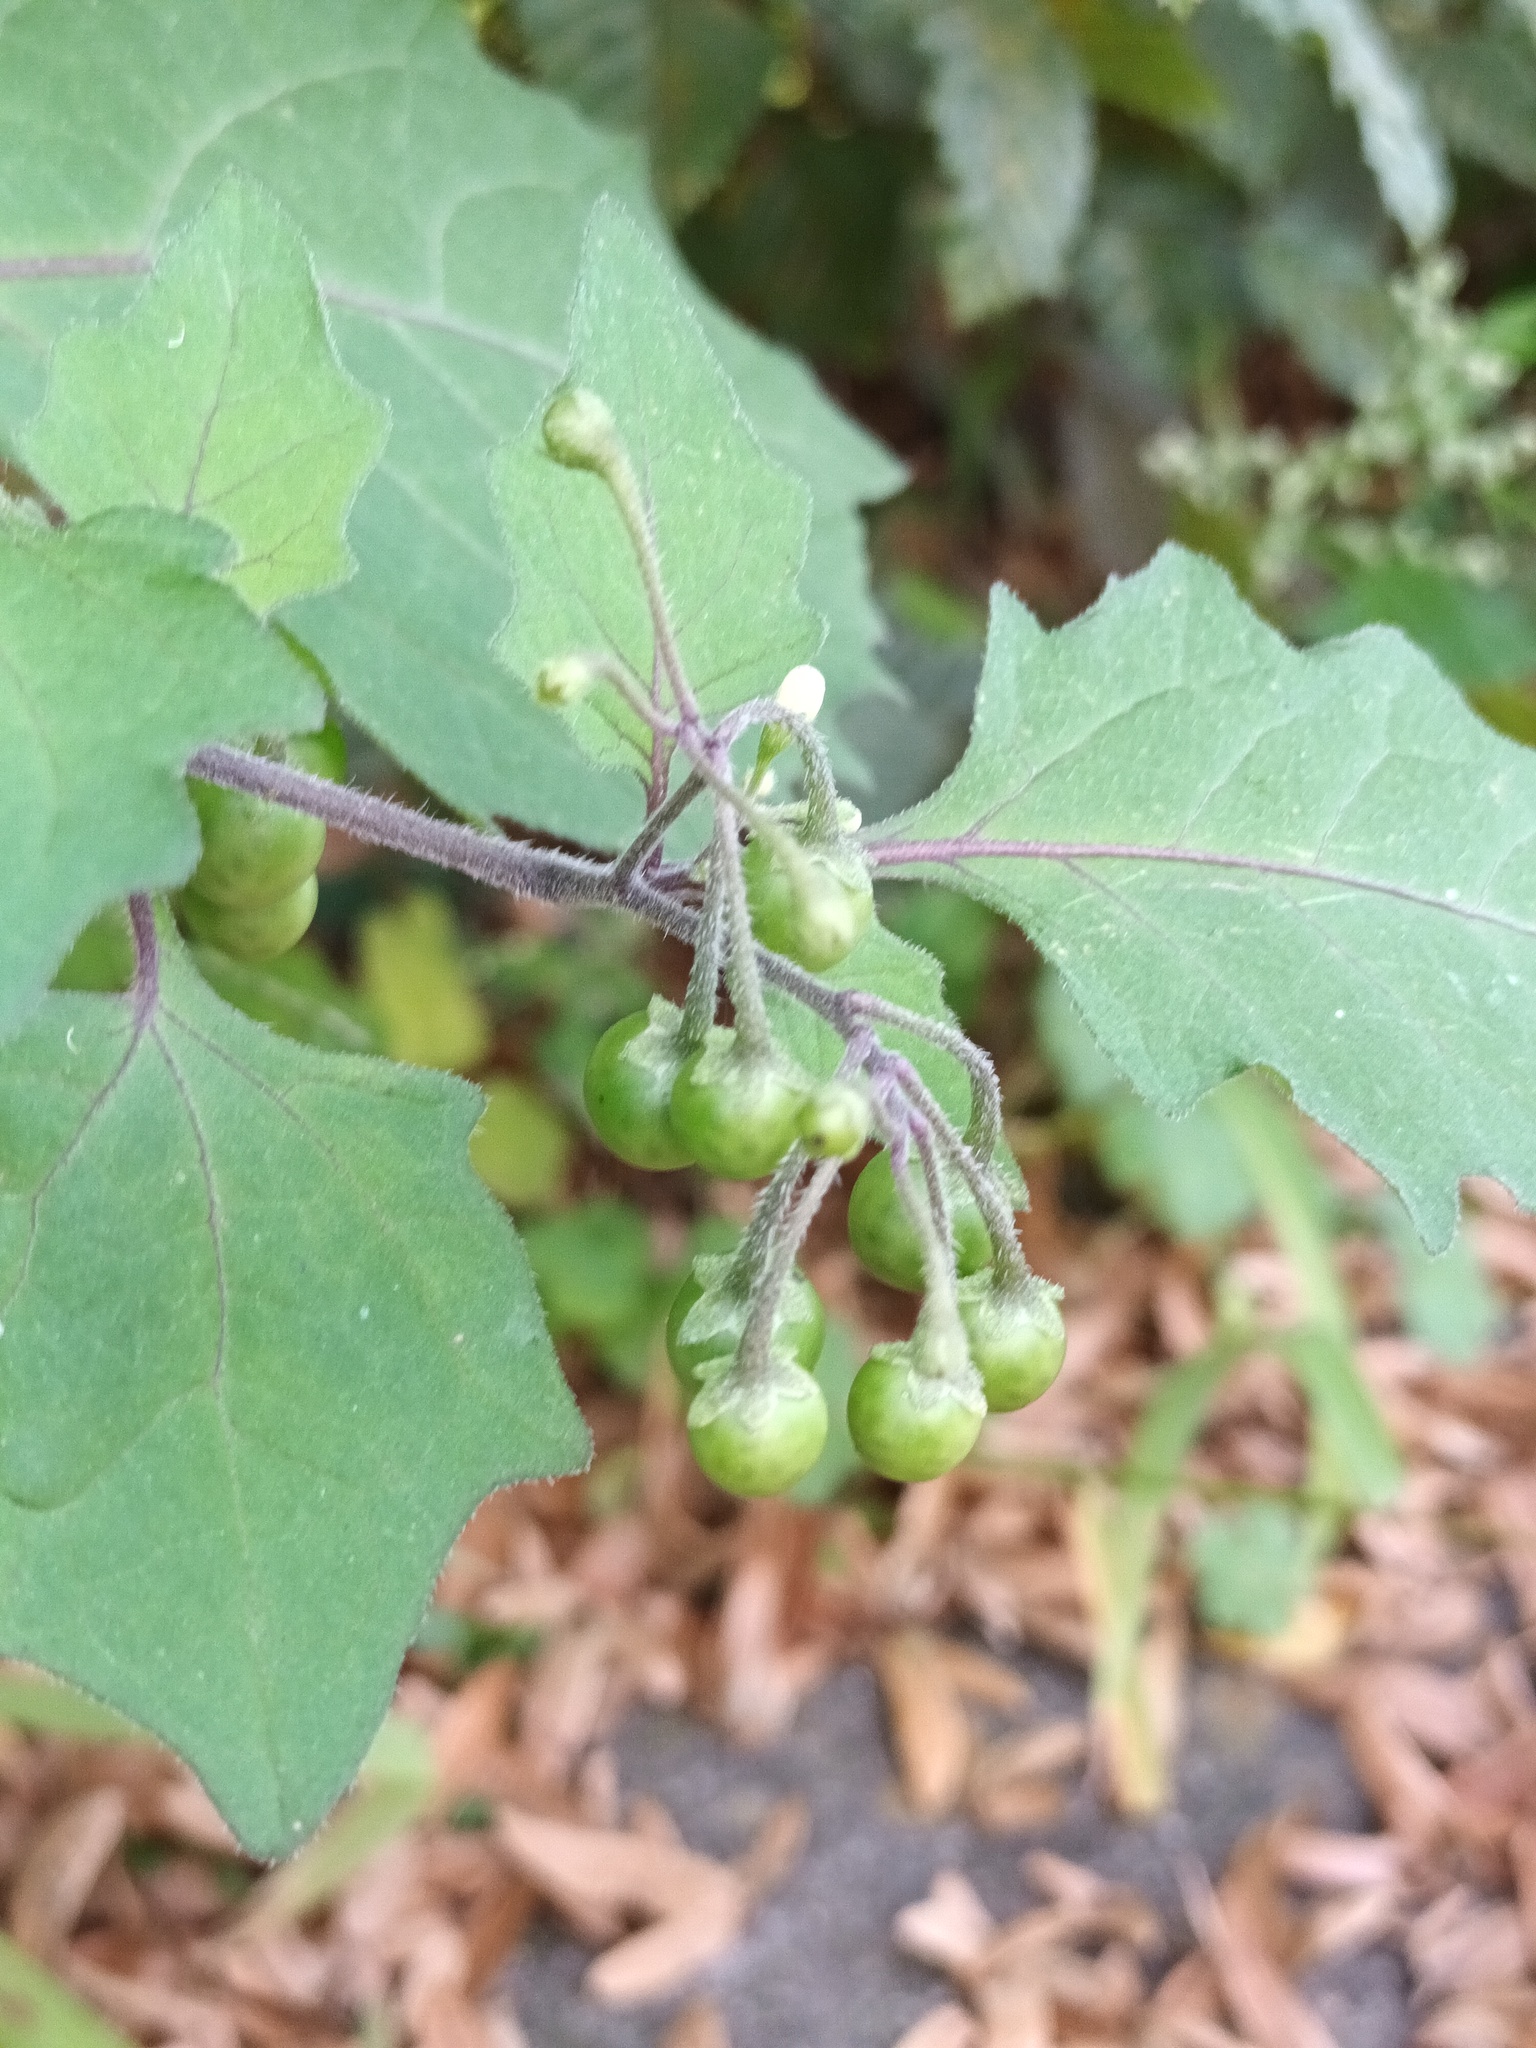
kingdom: Plantae
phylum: Tracheophyta
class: Magnoliopsida
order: Solanales
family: Solanaceae
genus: Solanum
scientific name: Solanum nigrum
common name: Black nightshade
